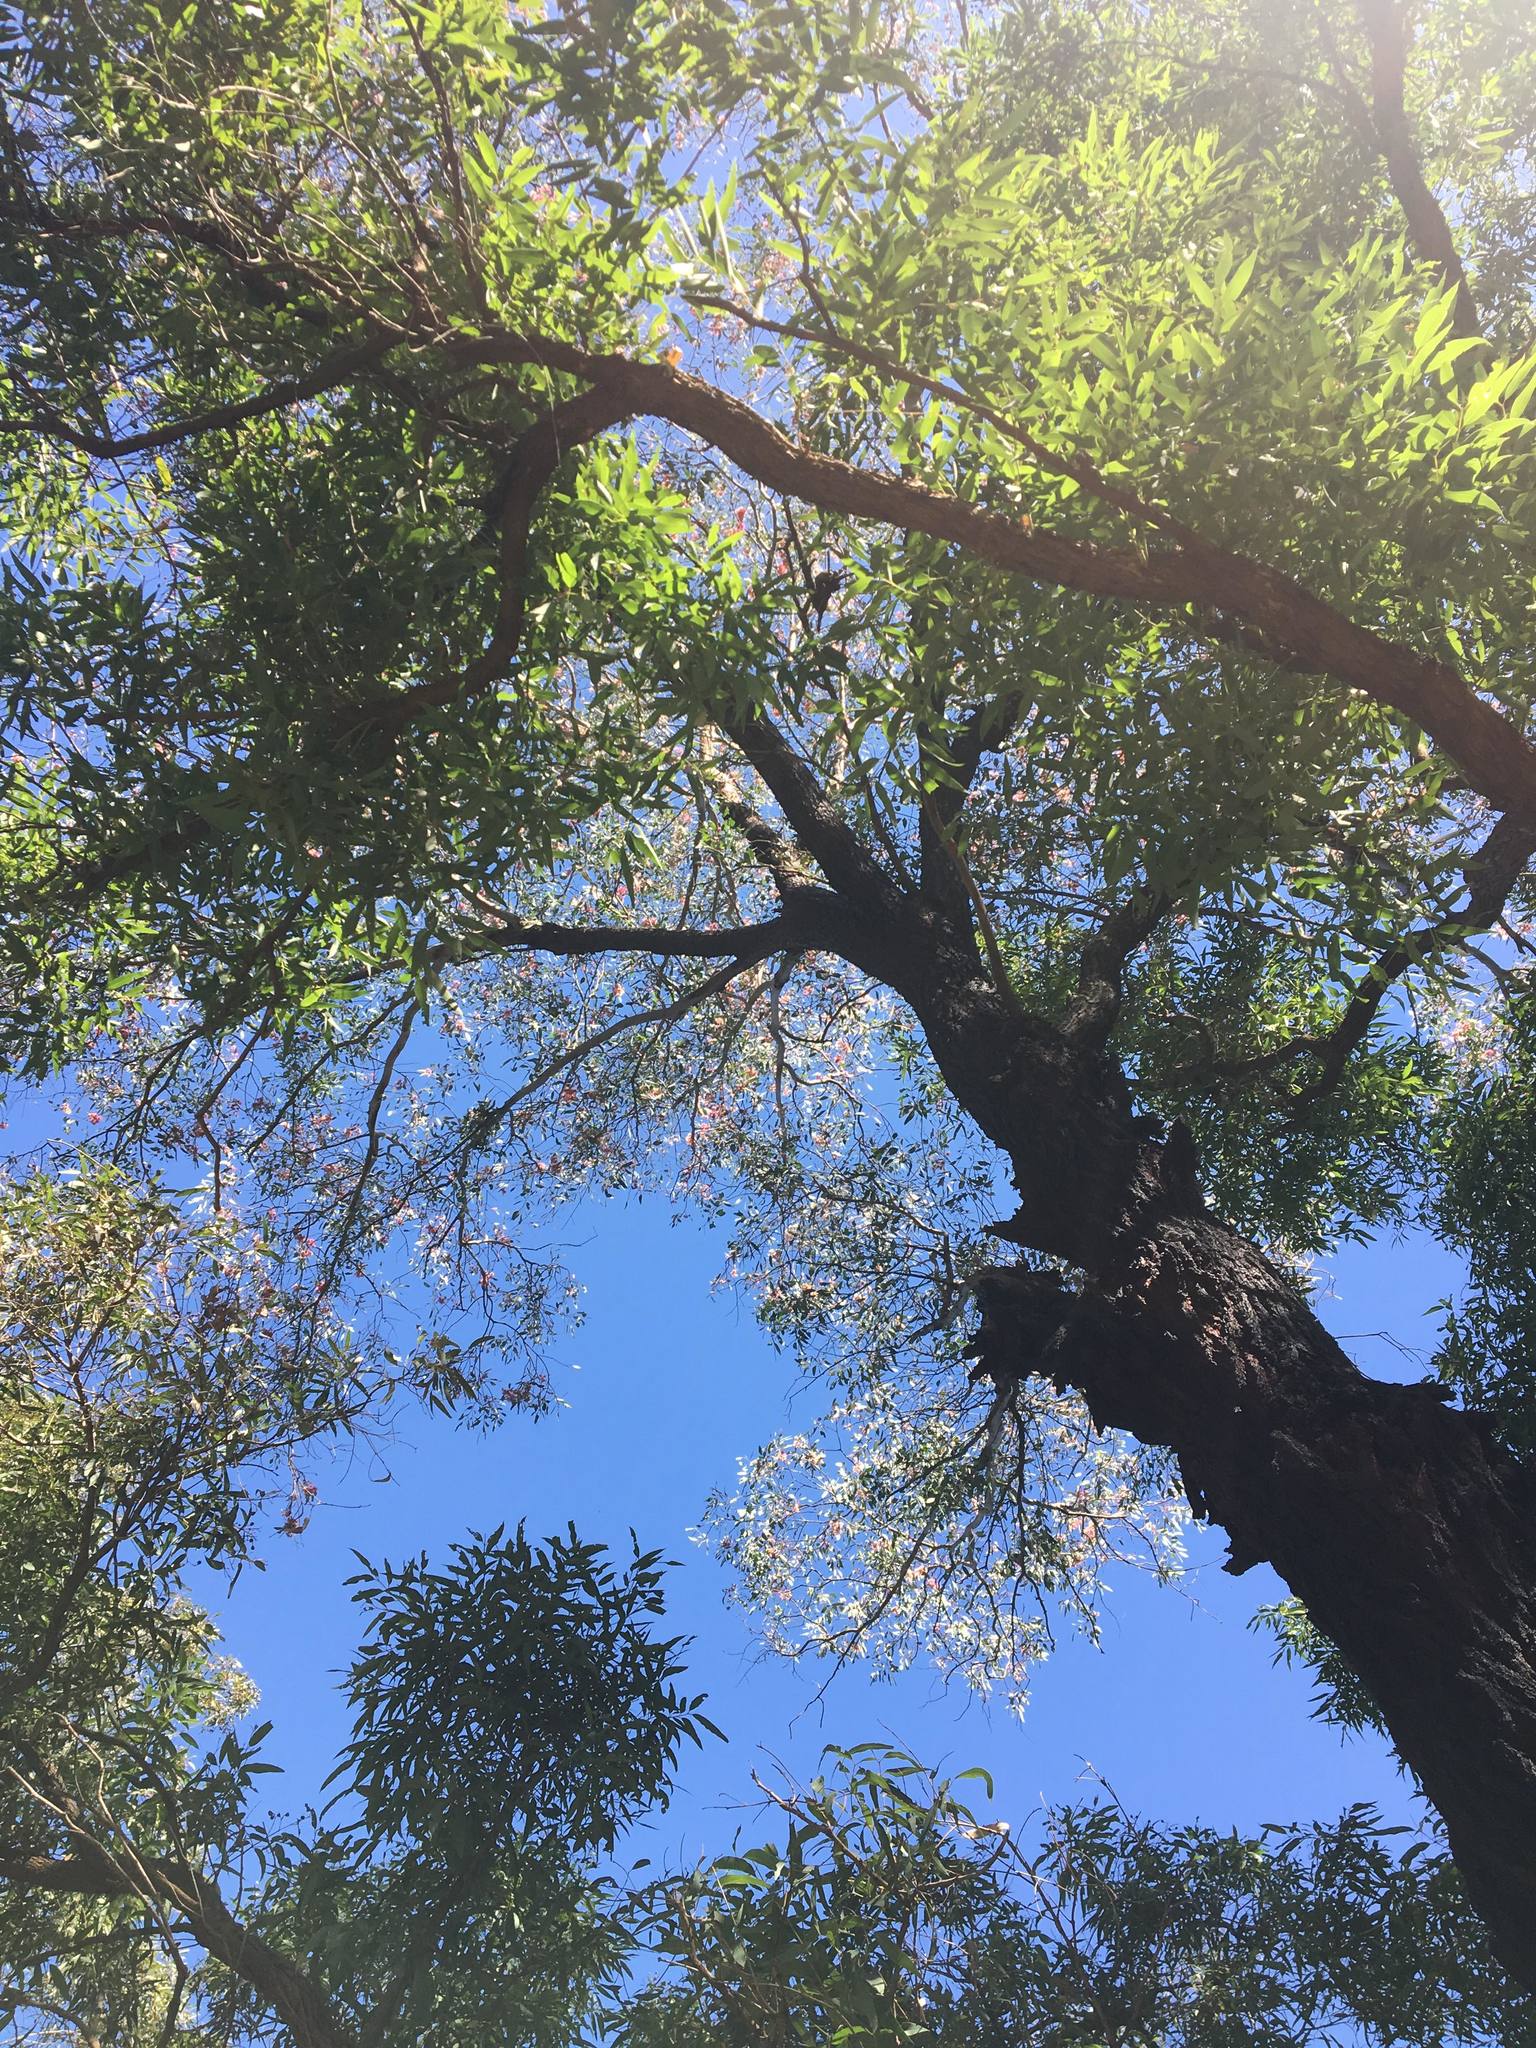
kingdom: Plantae
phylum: Tracheophyta
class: Magnoliopsida
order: Myrtales
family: Myrtaceae
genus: Eucalyptus
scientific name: Eucalyptus sideroxylon
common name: Red ironbark
